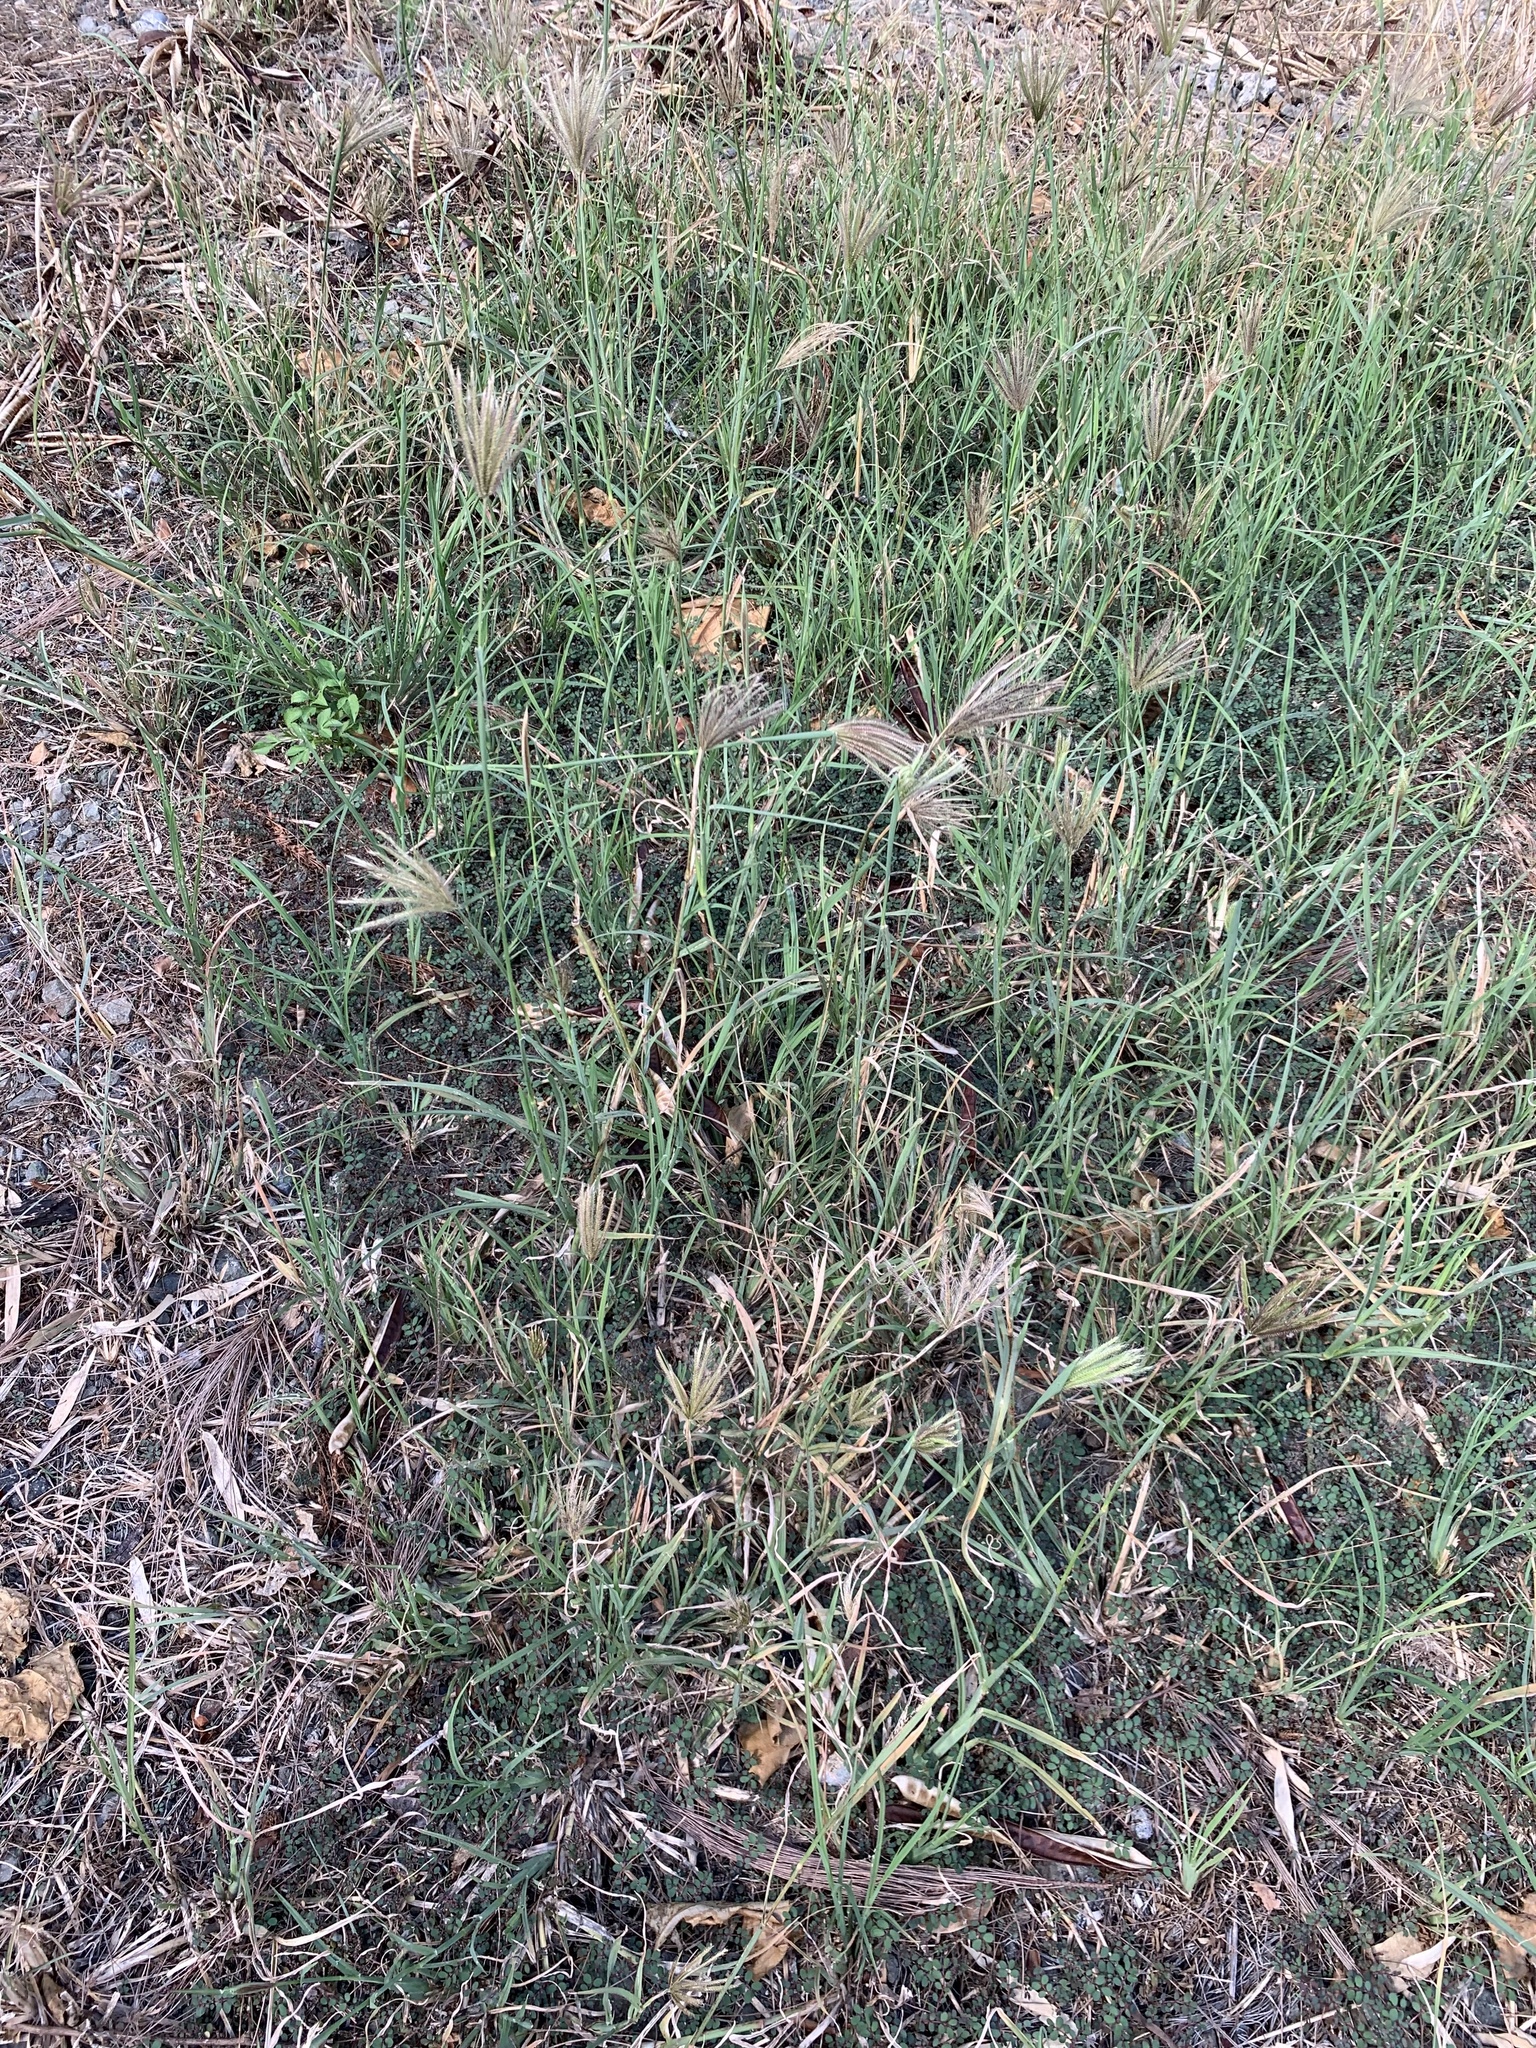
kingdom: Plantae
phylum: Tracheophyta
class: Liliopsida
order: Poales
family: Poaceae
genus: Chloris
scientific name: Chloris barbata
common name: Swollen fingergrass
